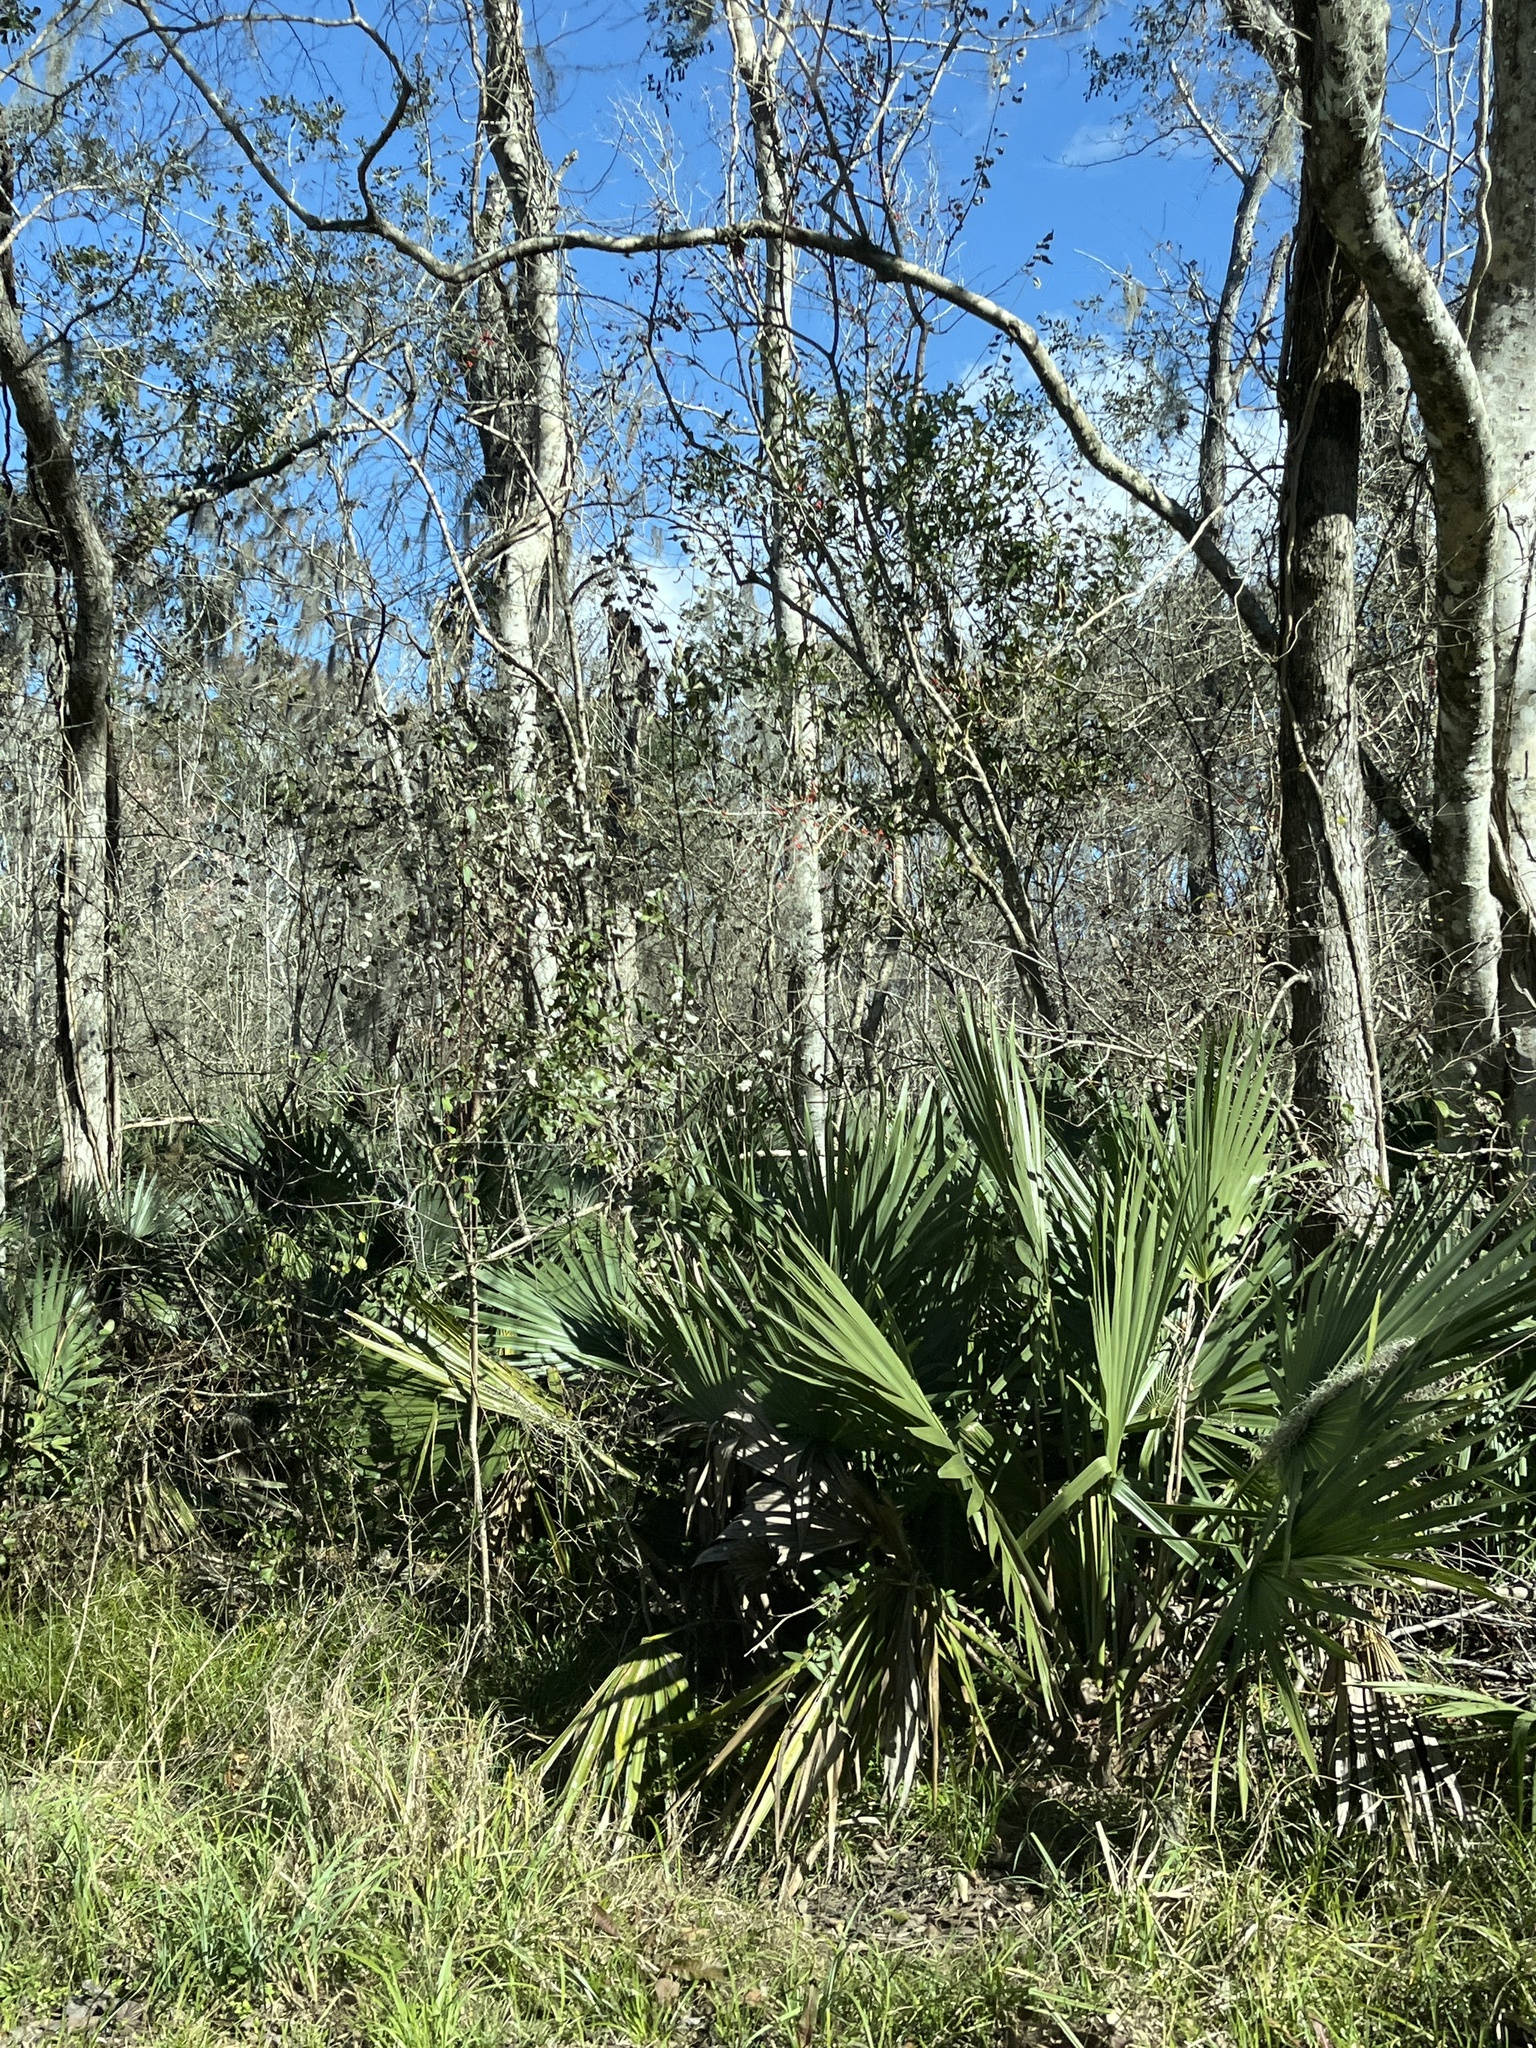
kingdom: Plantae
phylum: Tracheophyta
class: Liliopsida
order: Arecales
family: Arecaceae
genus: Sabal
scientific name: Sabal minor
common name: Dwarf palmetto
